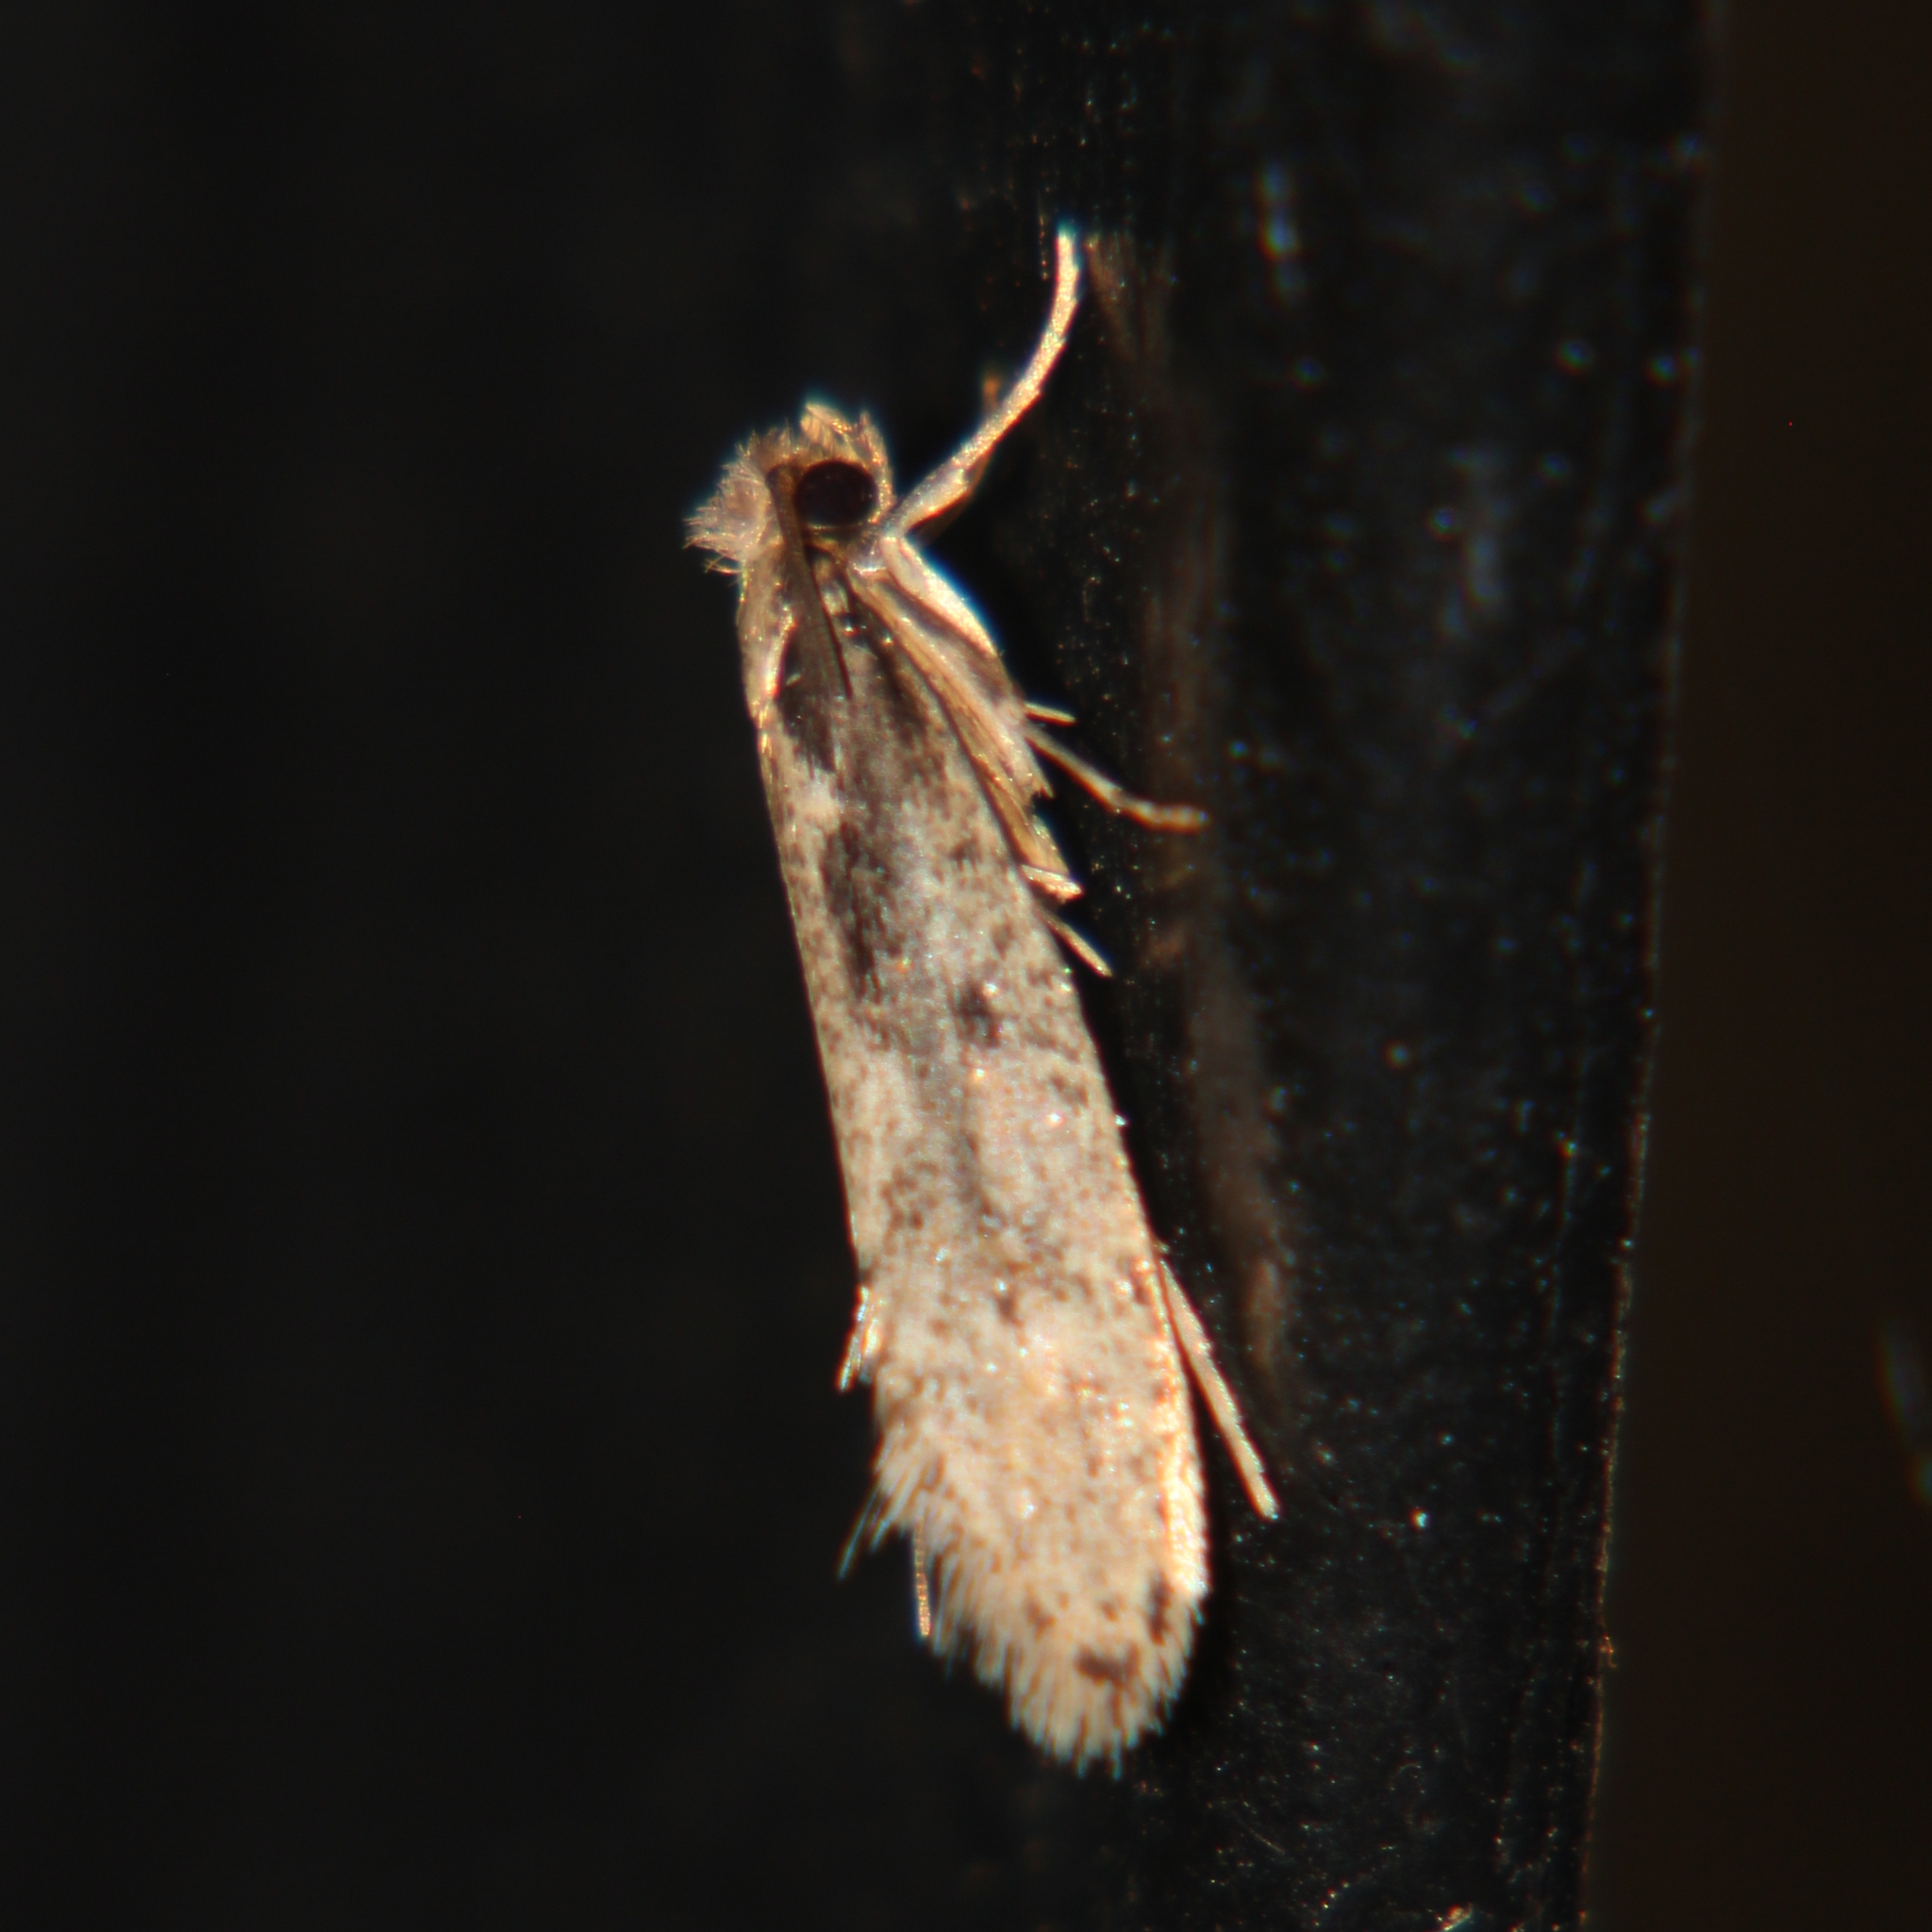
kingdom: Animalia
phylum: Arthropoda
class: Insecta
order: Lepidoptera
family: Tineidae
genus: Tinea
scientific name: Tinea pallescentella
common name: Large pale clothes moth
